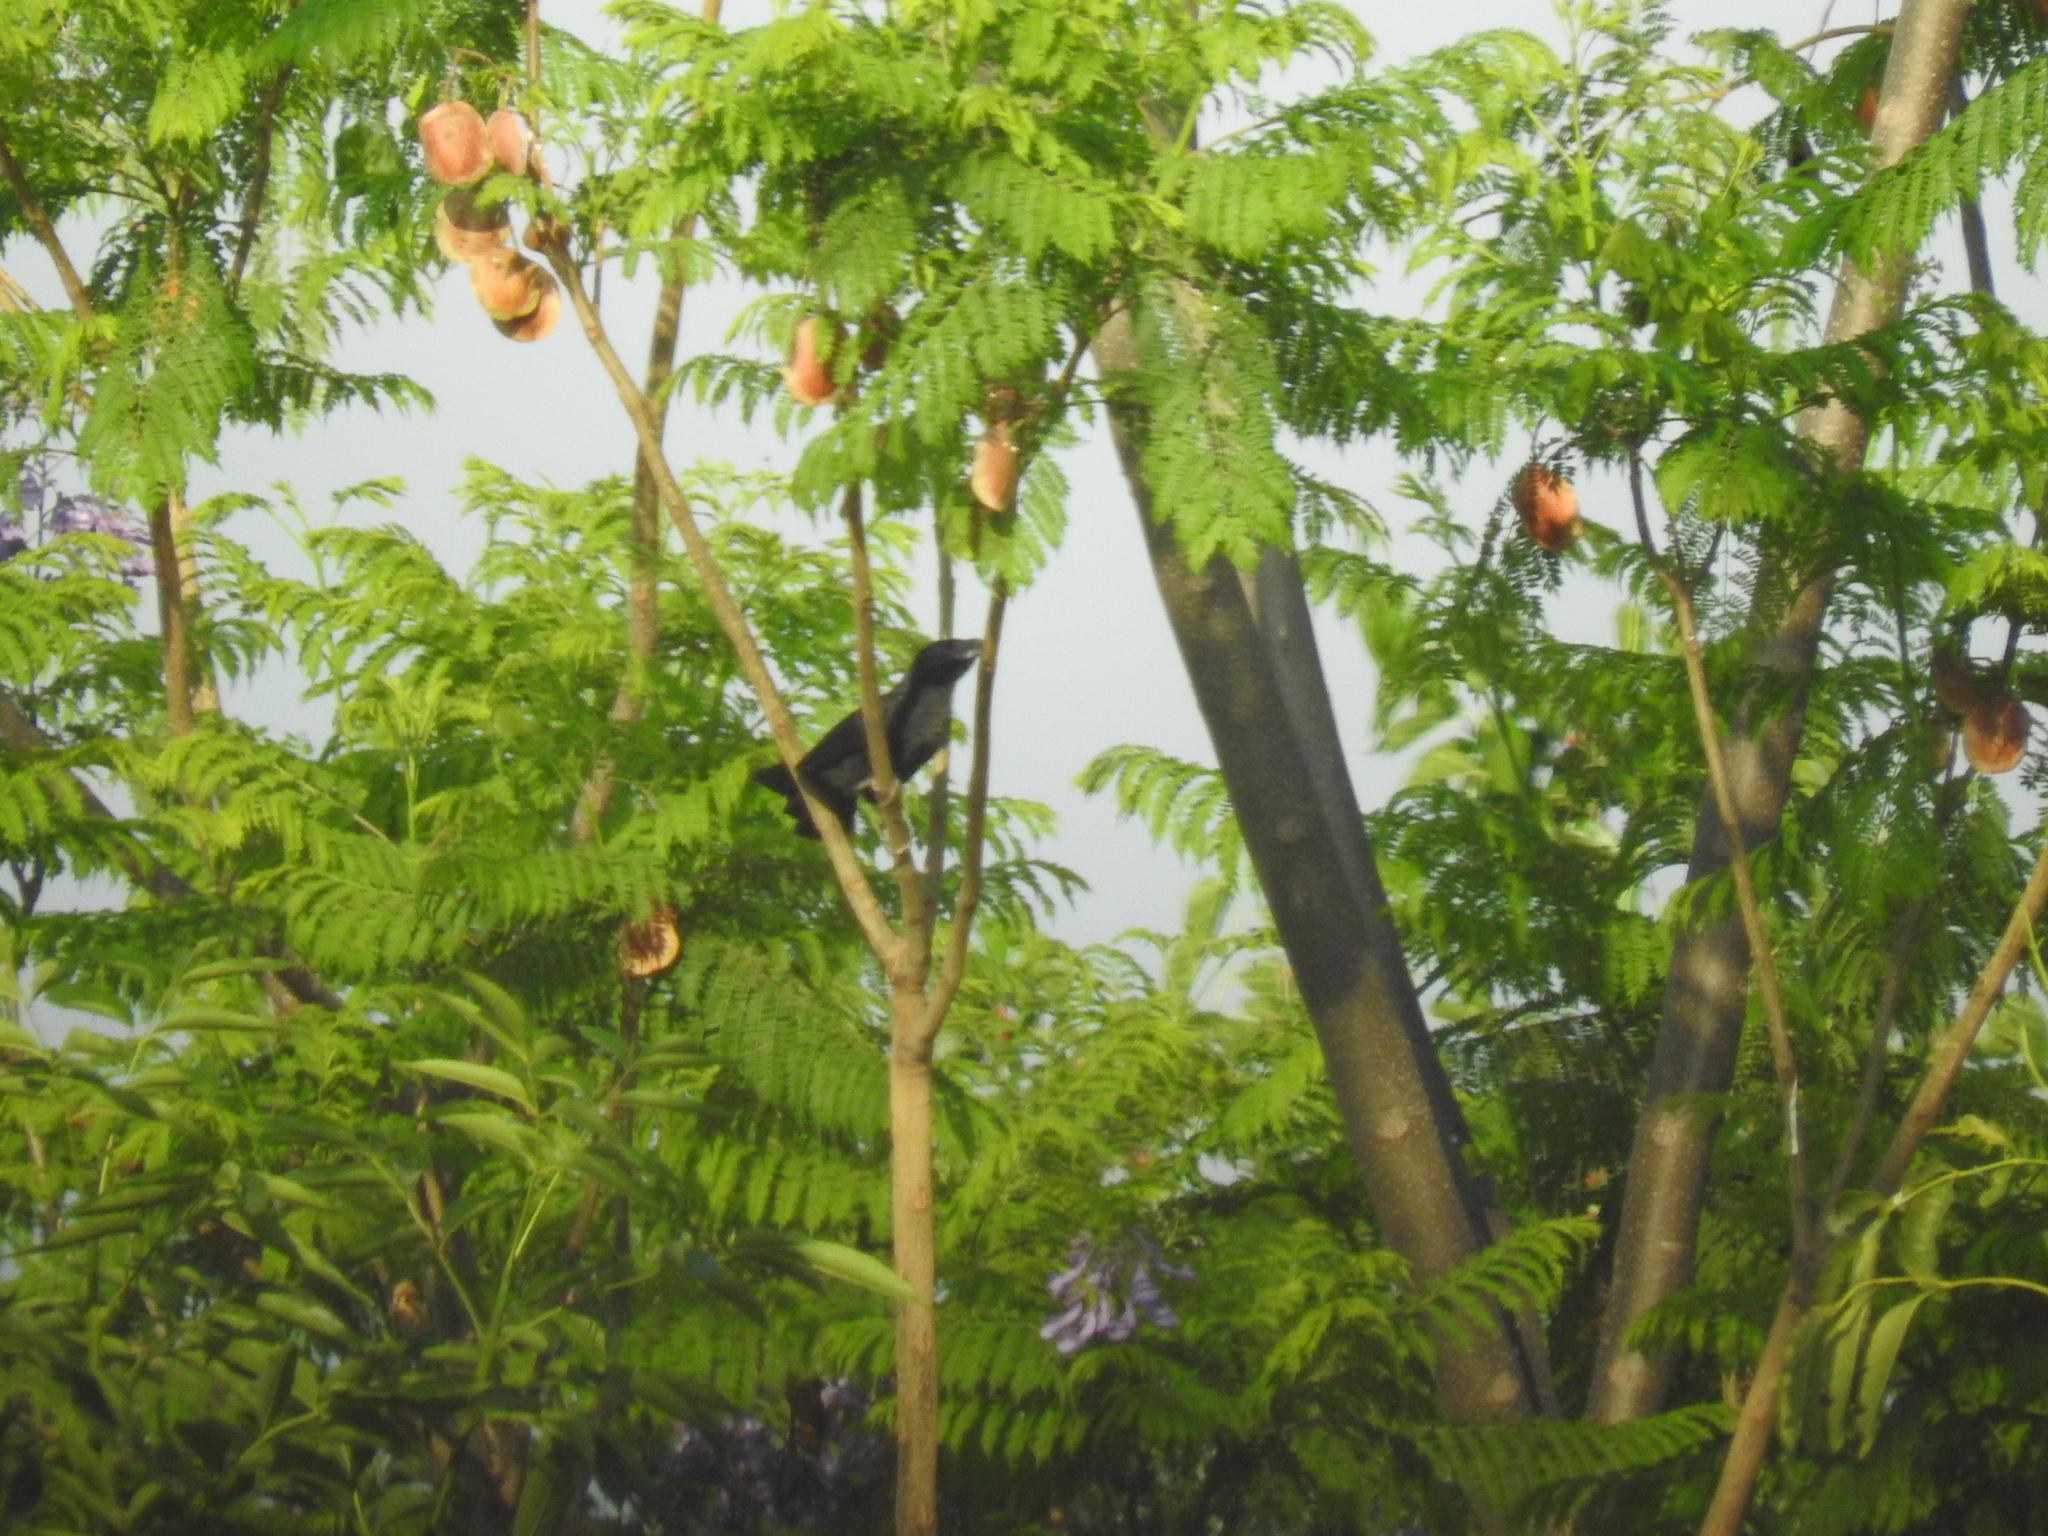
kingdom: Animalia
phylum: Chordata
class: Aves
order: Cuculiformes
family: Cuculidae
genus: Crotophaga
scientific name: Crotophaga sulcirostris
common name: Groove-billed ani
